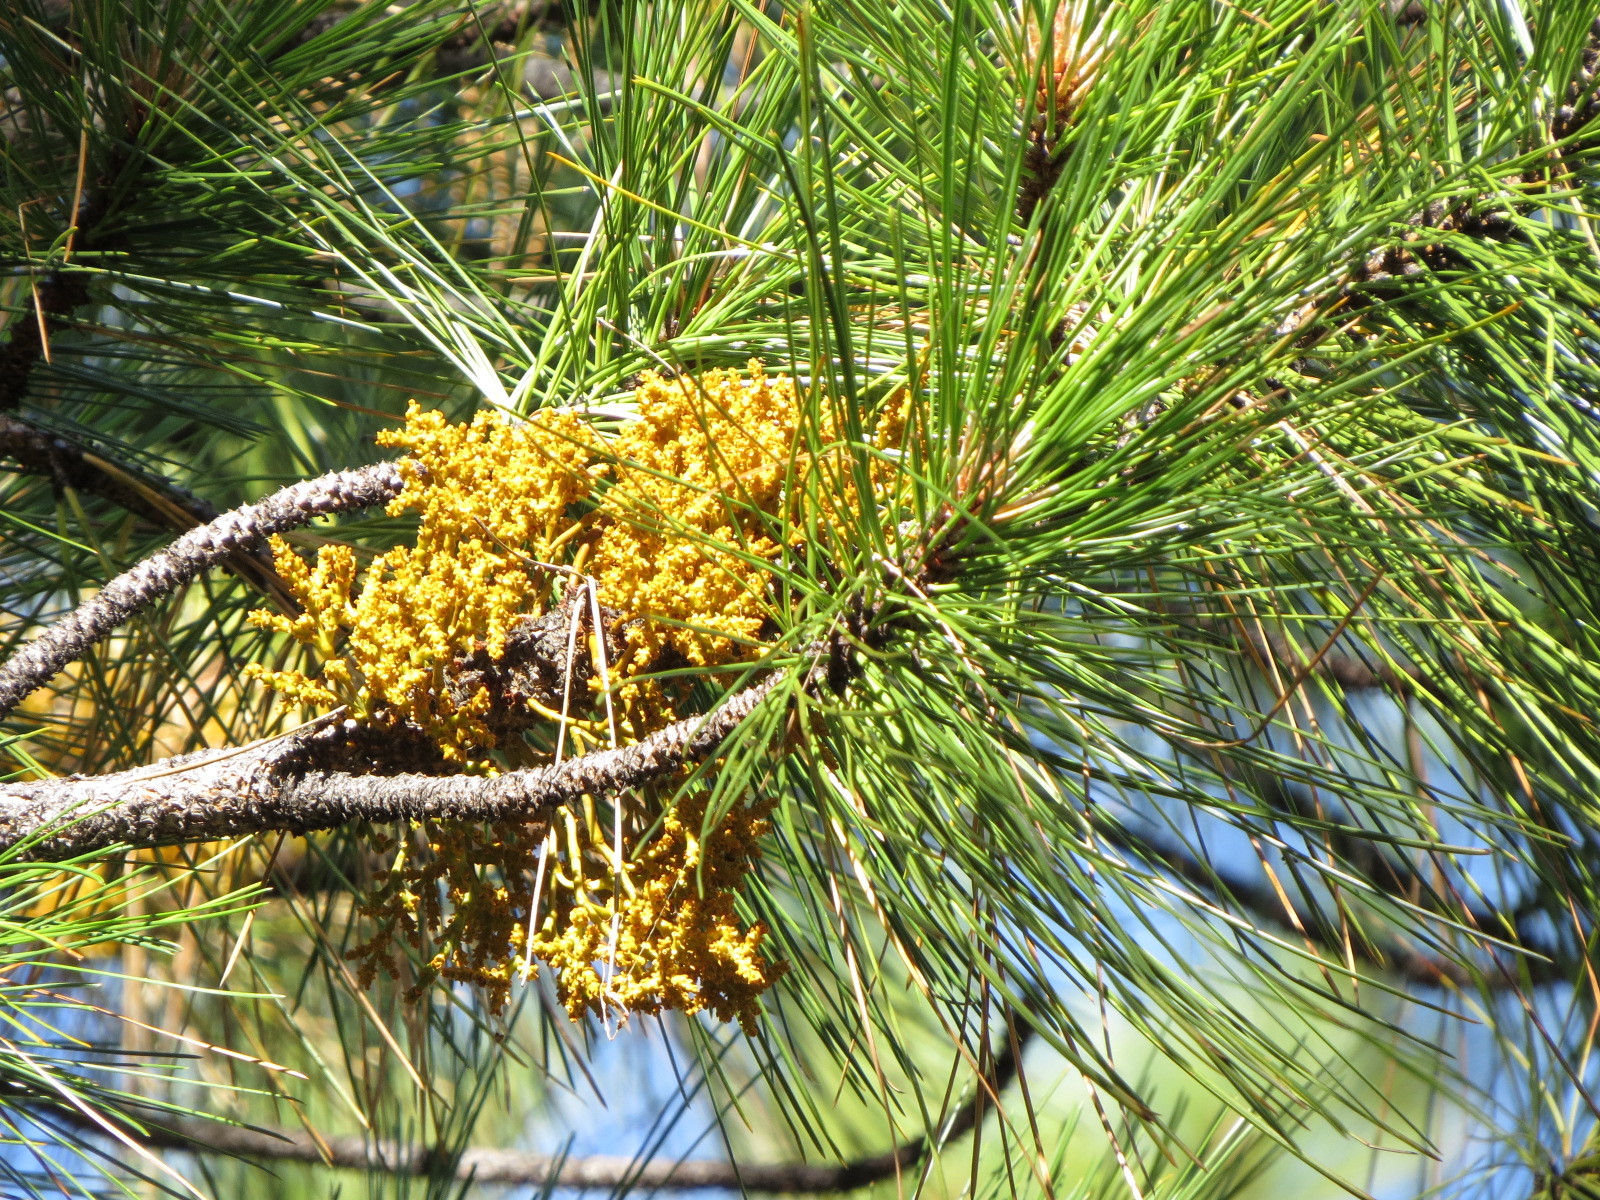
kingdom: Plantae
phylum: Tracheophyta
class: Magnoliopsida
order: Santalales
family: Viscaceae
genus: Arceuthobium
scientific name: Arceuthobium campylopodum
